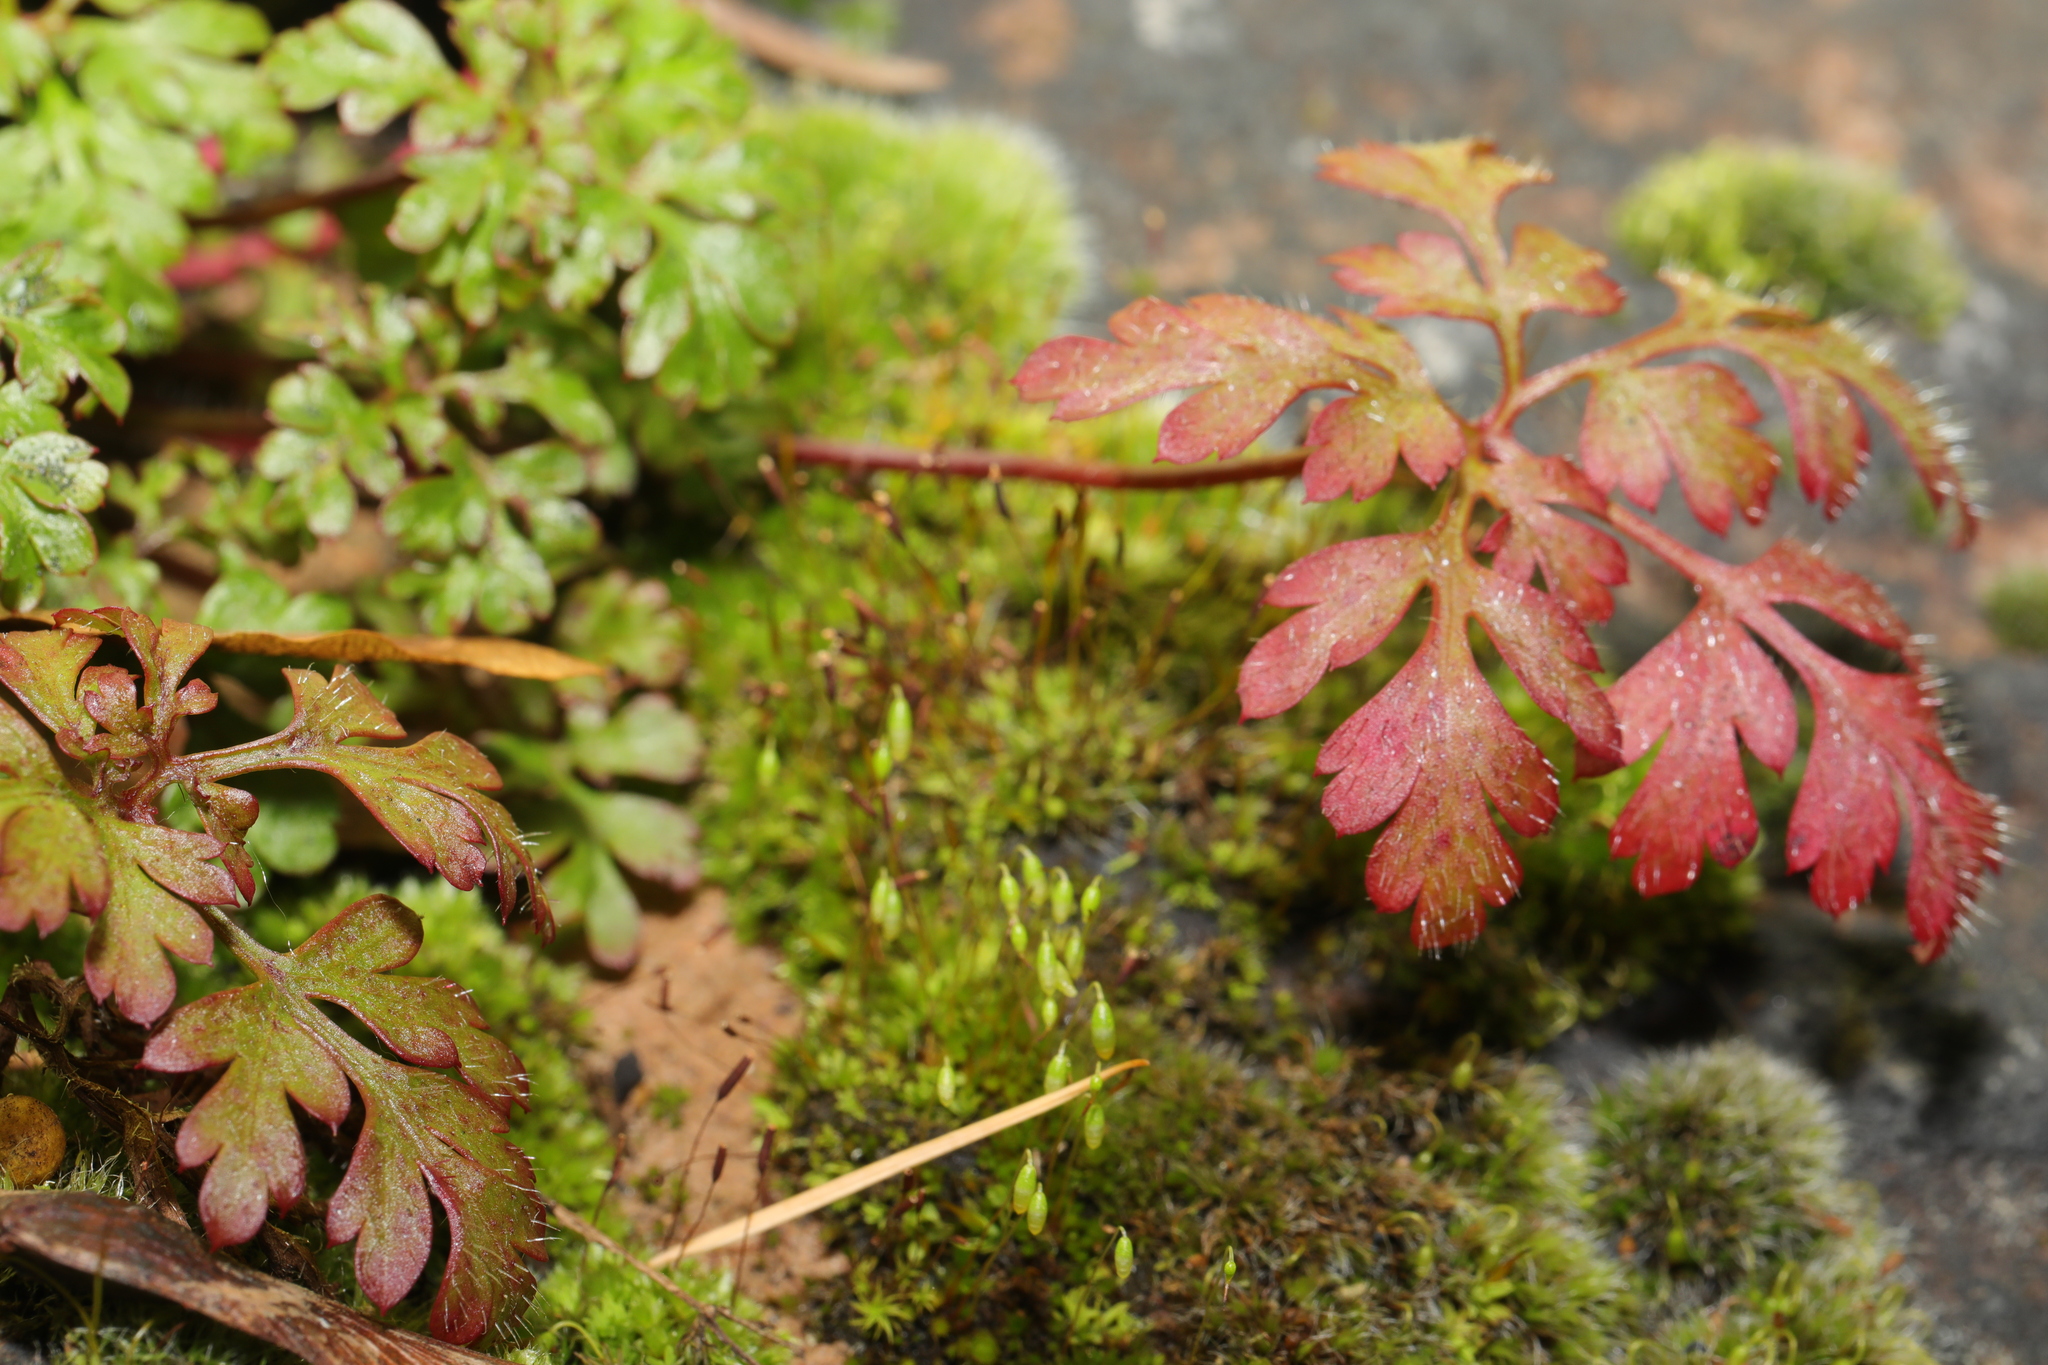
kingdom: Plantae
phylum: Tracheophyta
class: Magnoliopsida
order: Geraniales
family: Geraniaceae
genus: Geranium
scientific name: Geranium robertianum
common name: Herb-robert
